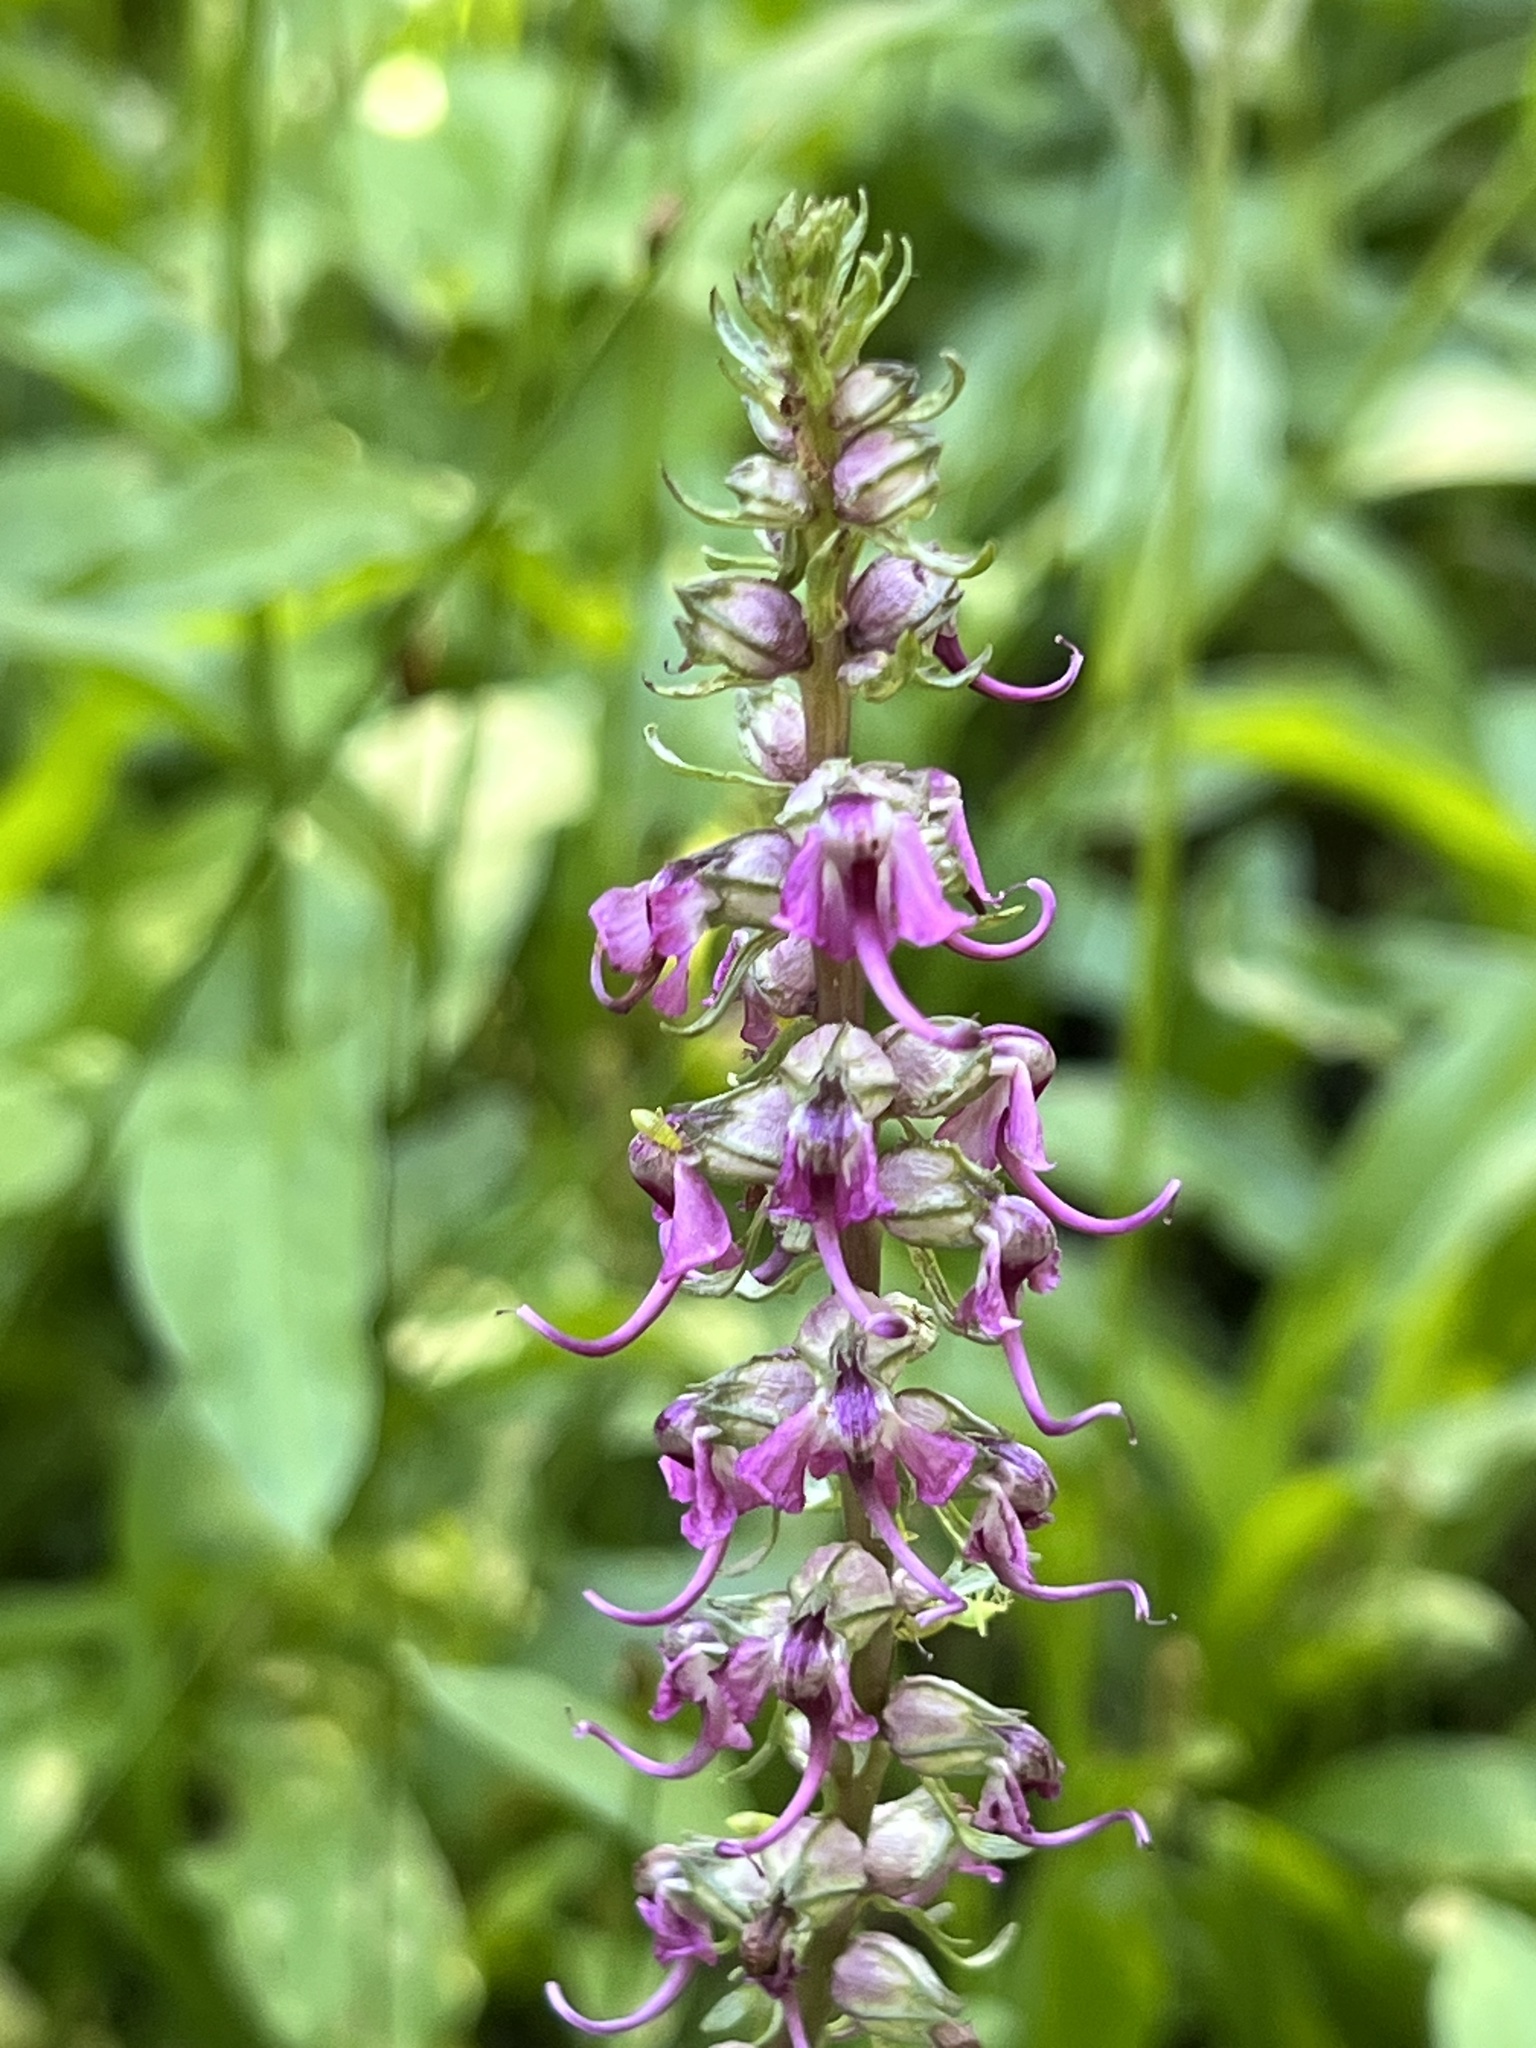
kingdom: Plantae
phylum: Tracheophyta
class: Magnoliopsida
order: Lamiales
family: Orobanchaceae
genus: Pedicularis
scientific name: Pedicularis groenlandica
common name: Elephant's-head
